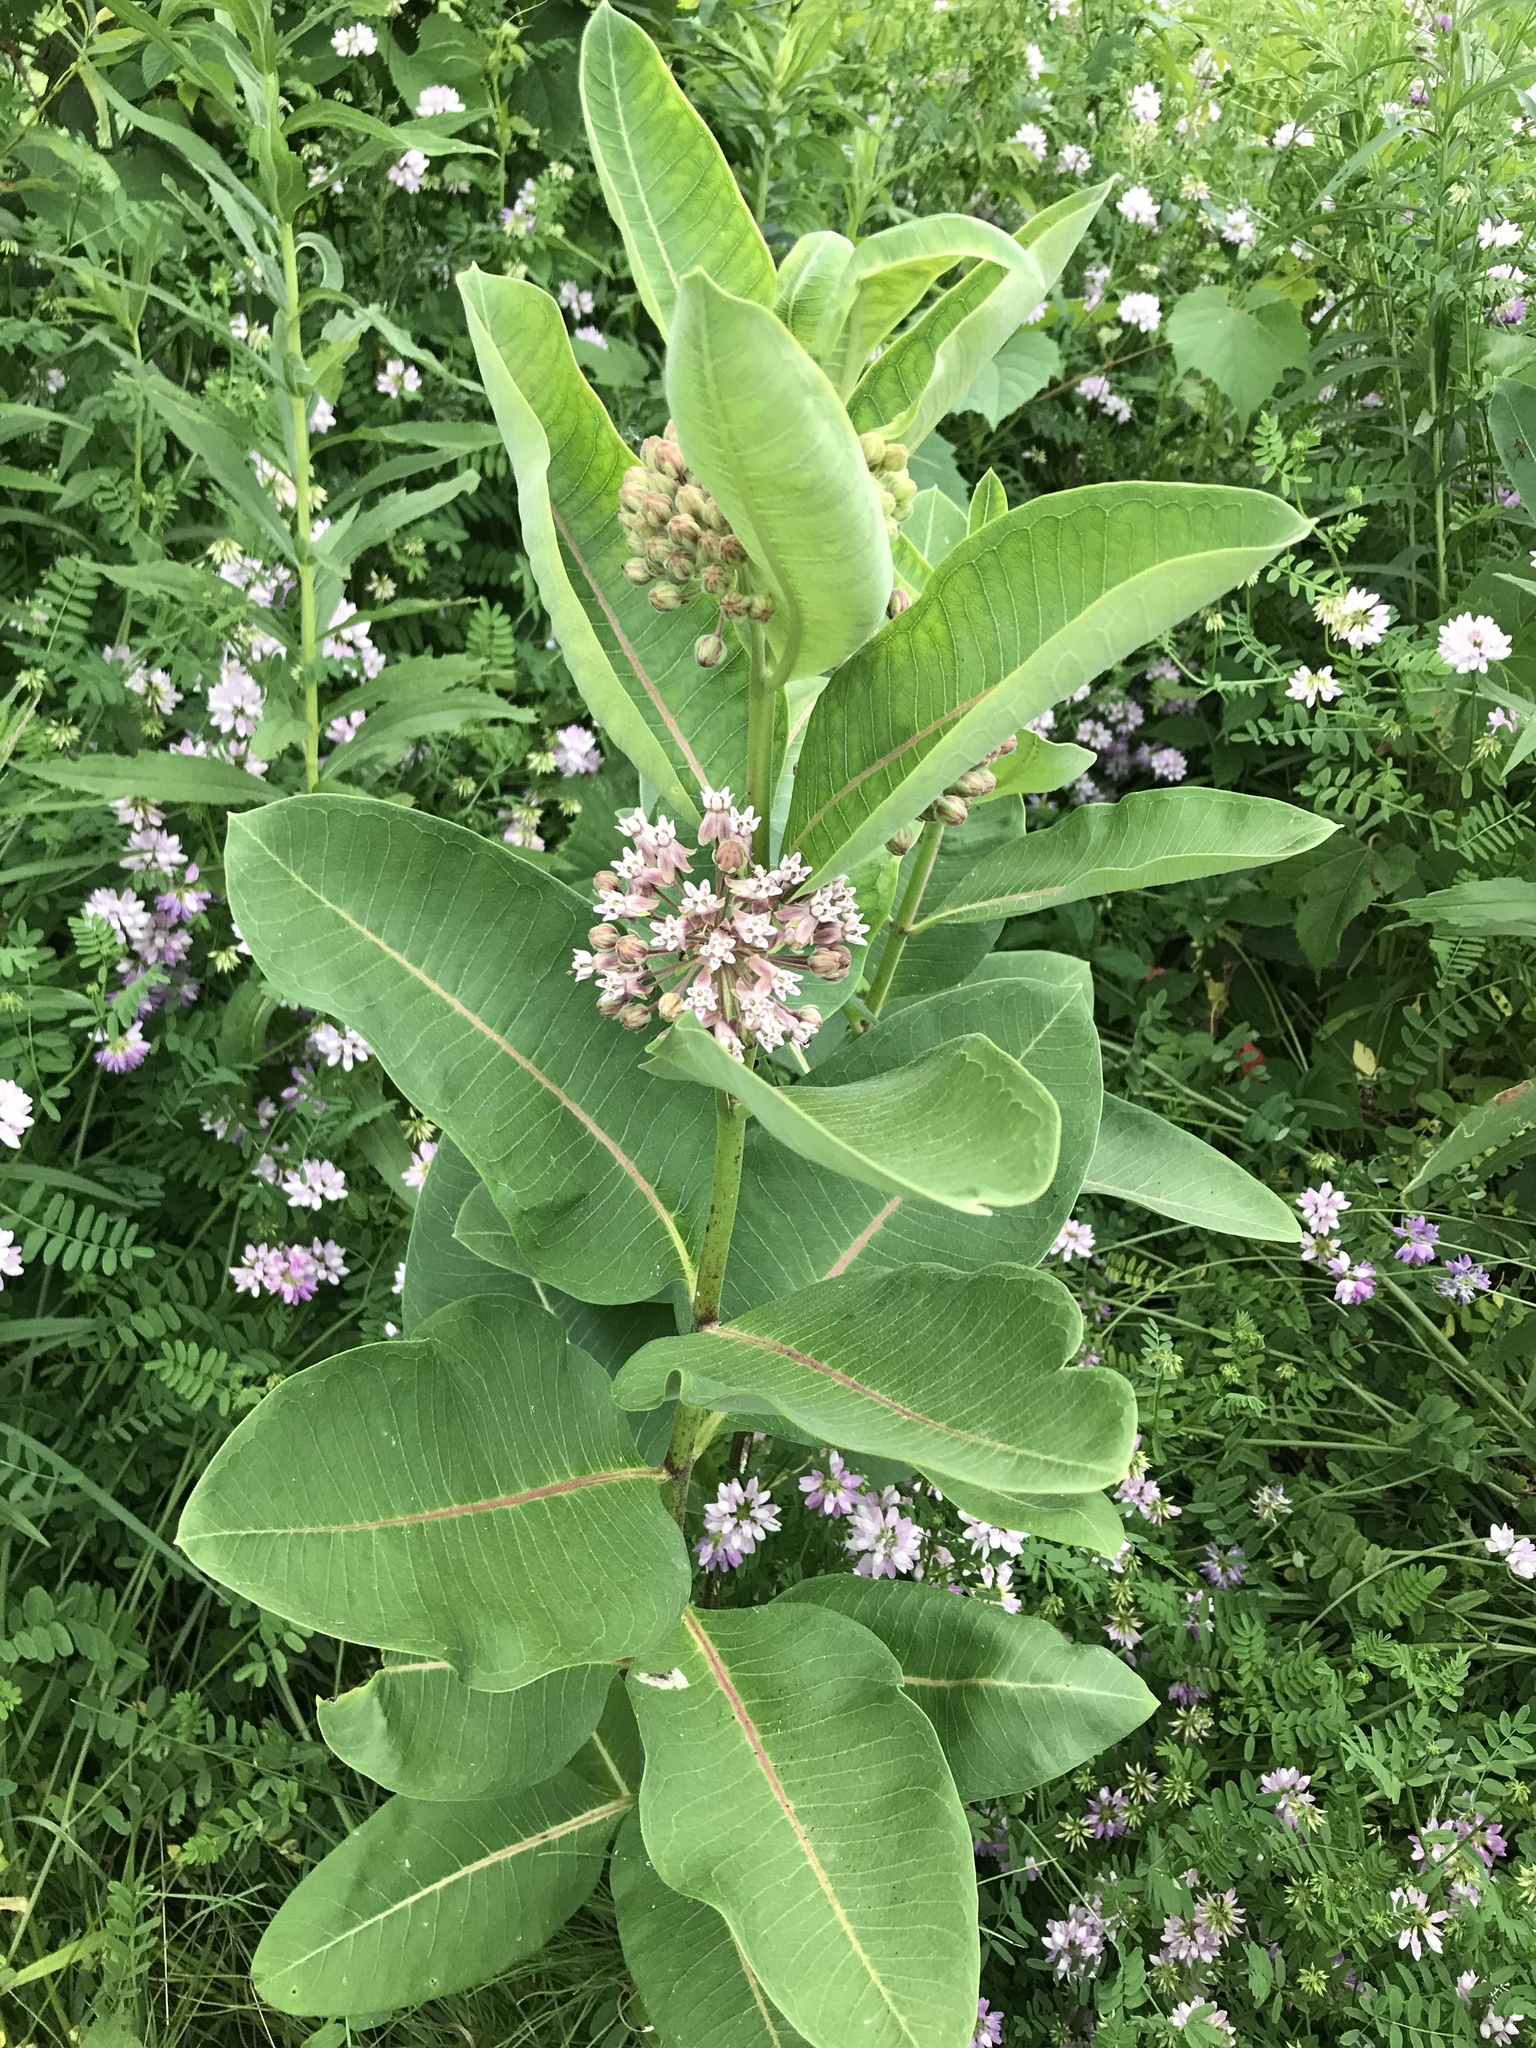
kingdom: Plantae
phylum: Tracheophyta
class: Magnoliopsida
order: Gentianales
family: Apocynaceae
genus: Asclepias
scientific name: Asclepias syriaca
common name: Common milkweed
